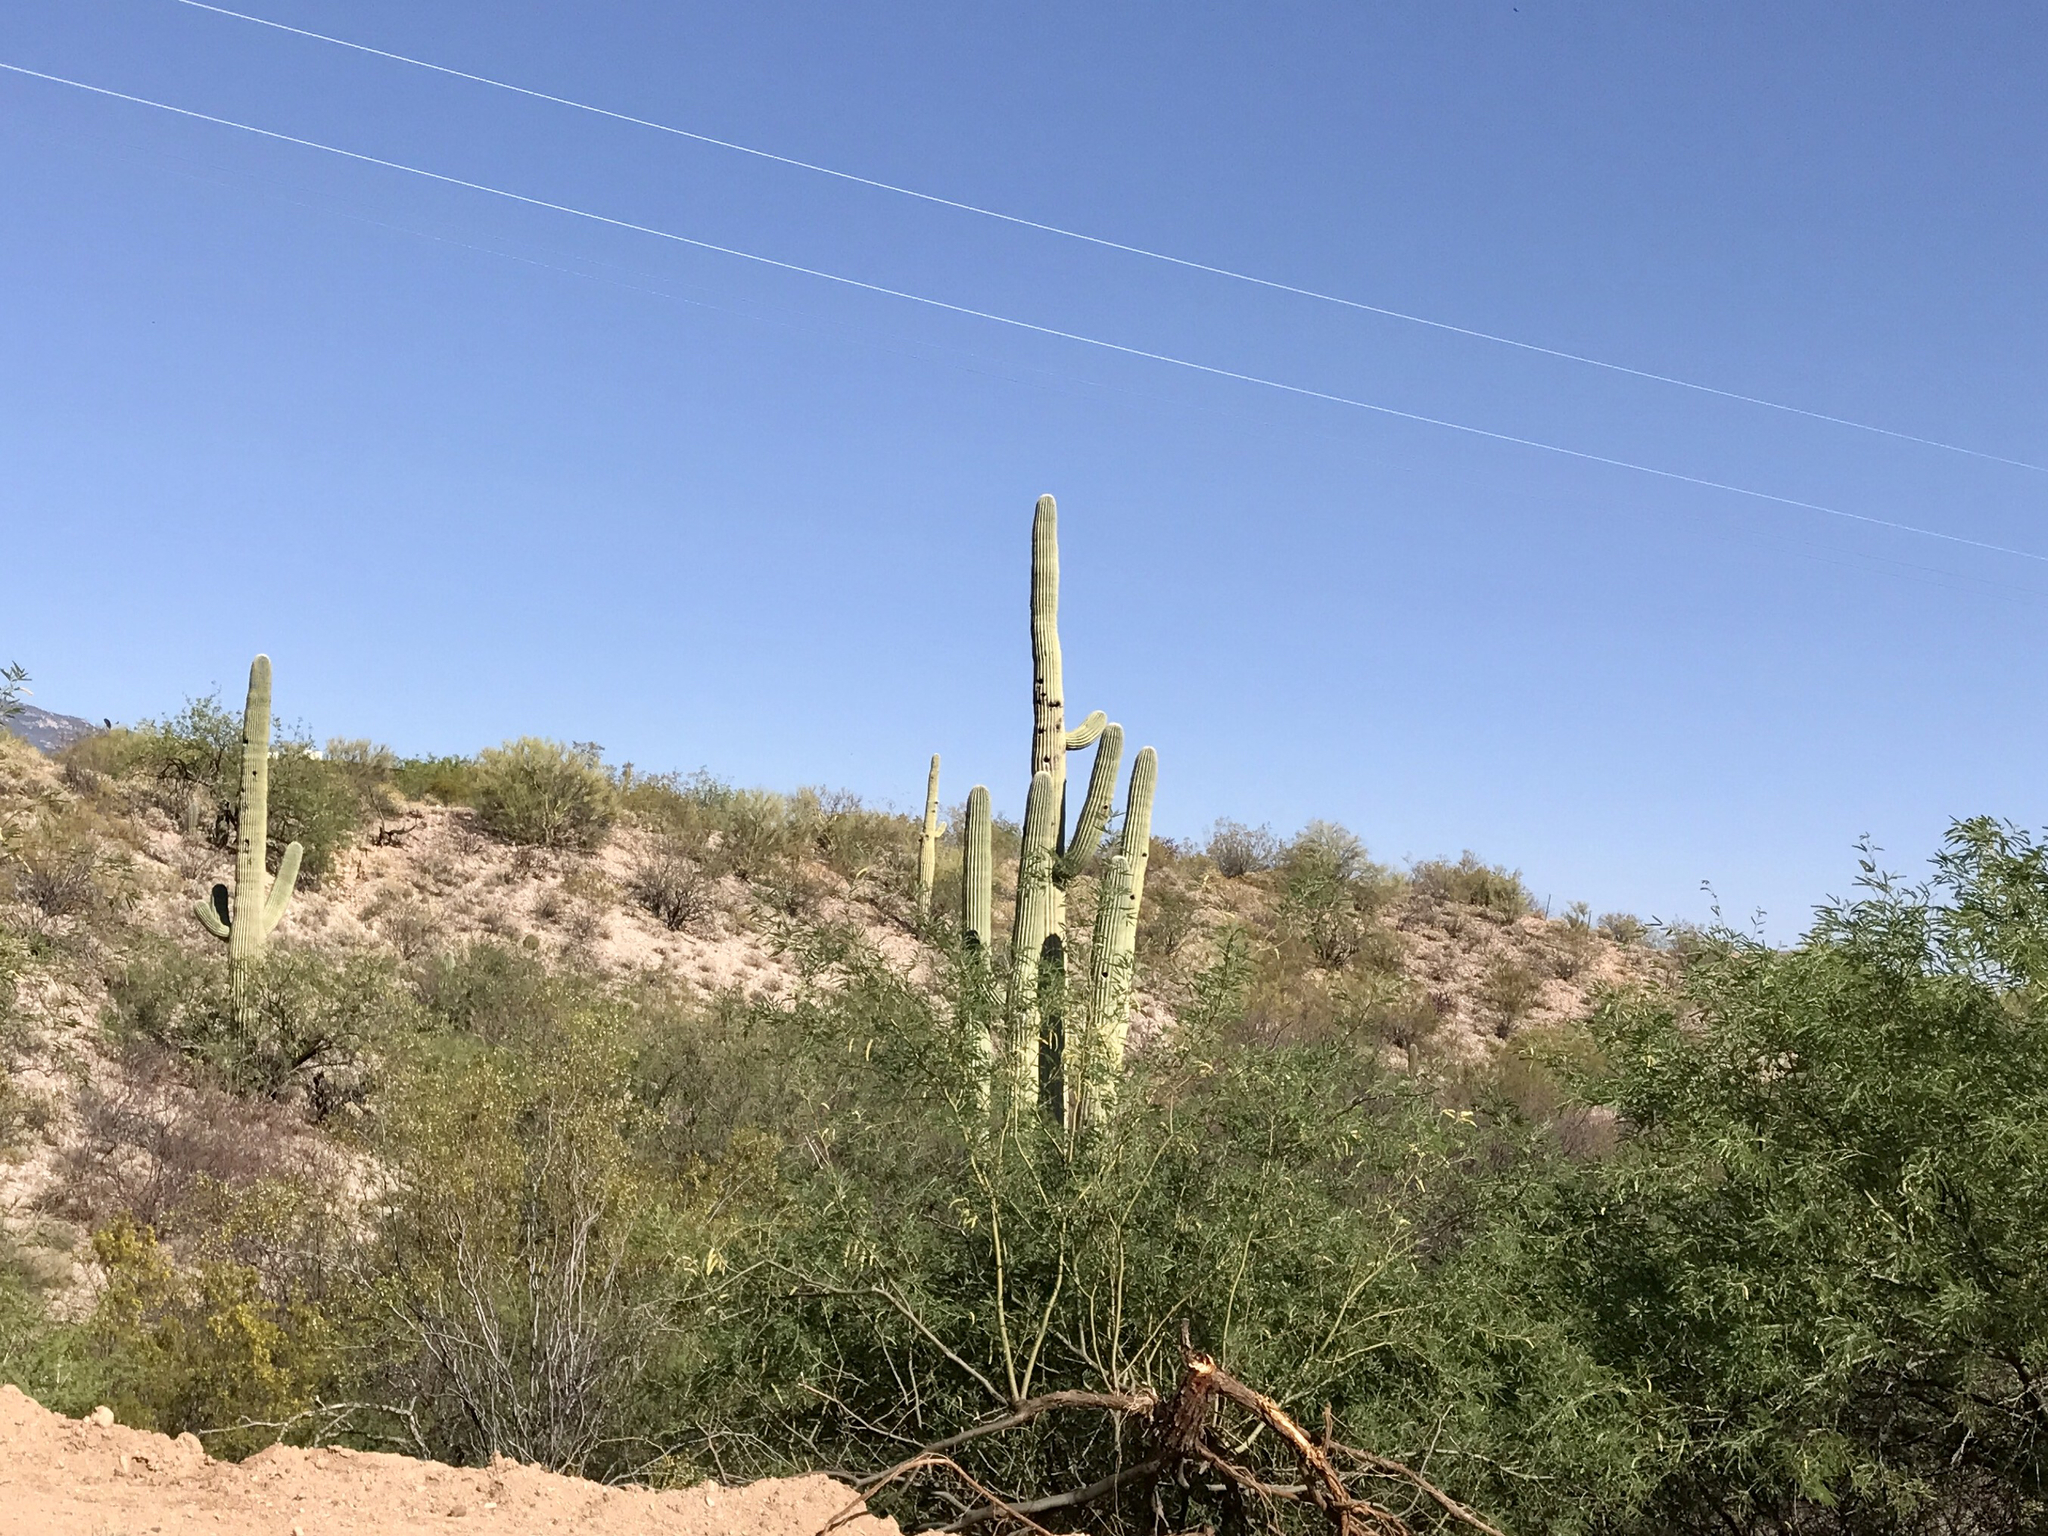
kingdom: Plantae
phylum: Tracheophyta
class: Magnoliopsida
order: Caryophyllales
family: Cactaceae
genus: Carnegiea
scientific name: Carnegiea gigantea
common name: Saguaro
